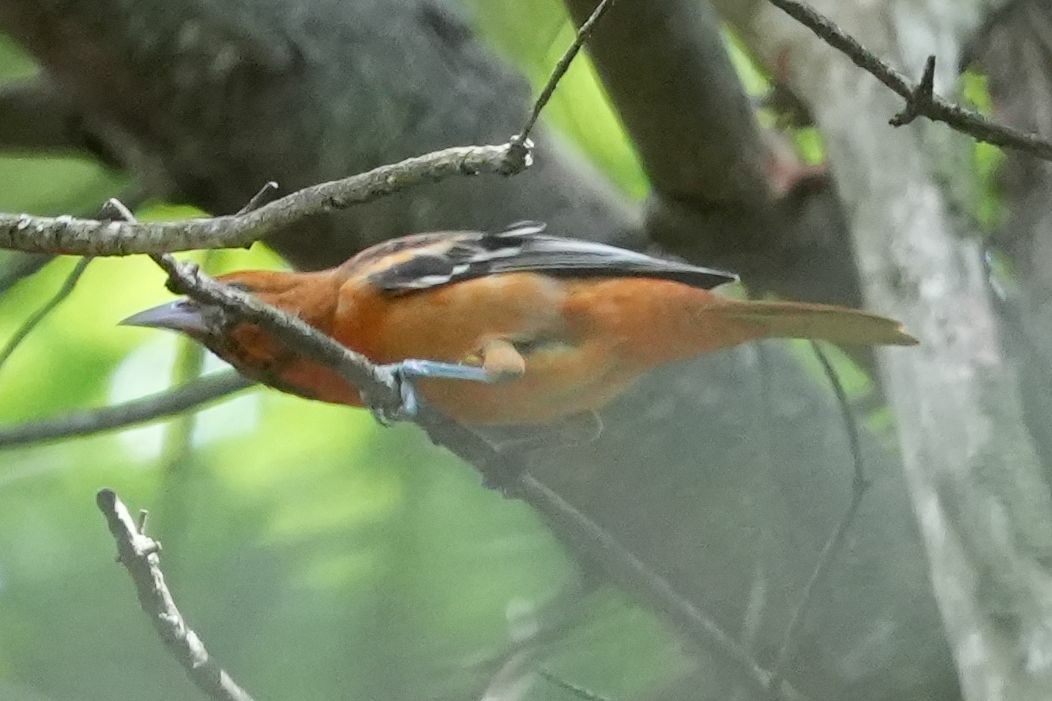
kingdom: Animalia
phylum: Chordata
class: Aves
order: Passeriformes
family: Icteridae
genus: Icterus
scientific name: Icterus galbula
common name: Baltimore oriole
